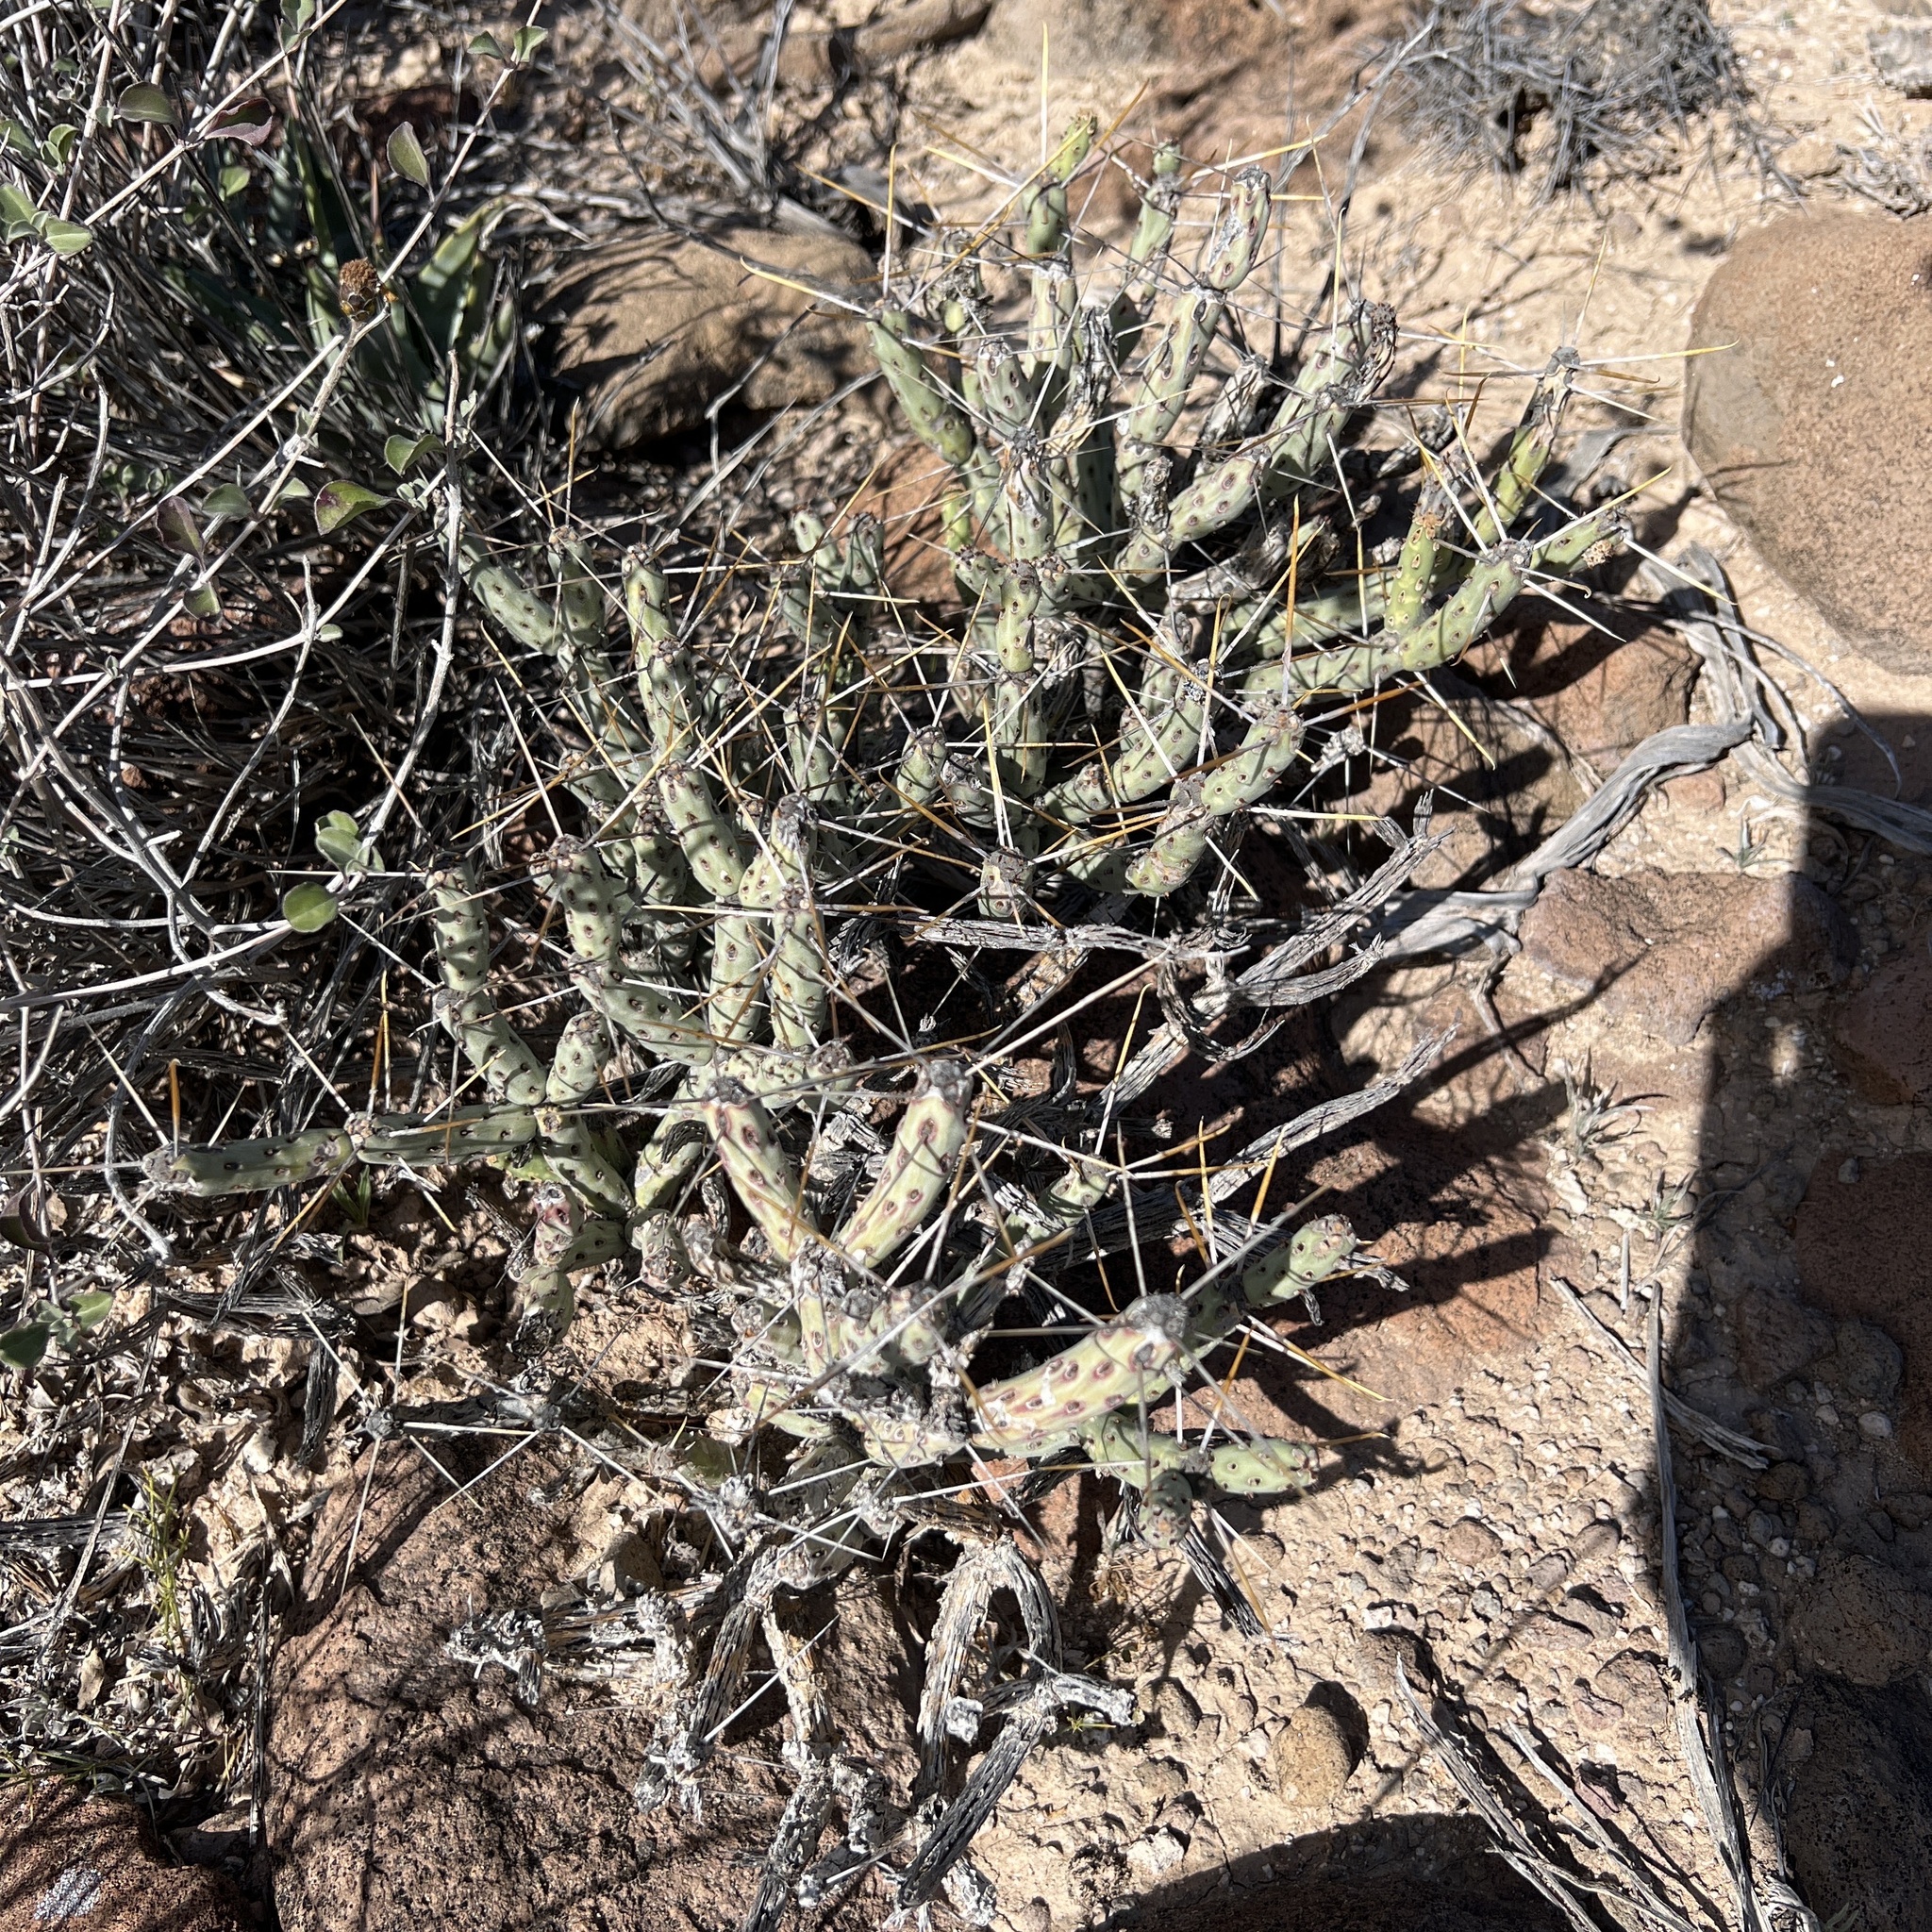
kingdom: Plantae
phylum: Tracheophyta
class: Magnoliopsida
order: Caryophyllales
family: Cactaceae
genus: Cylindropuntia
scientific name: Cylindropuntia tesajo
